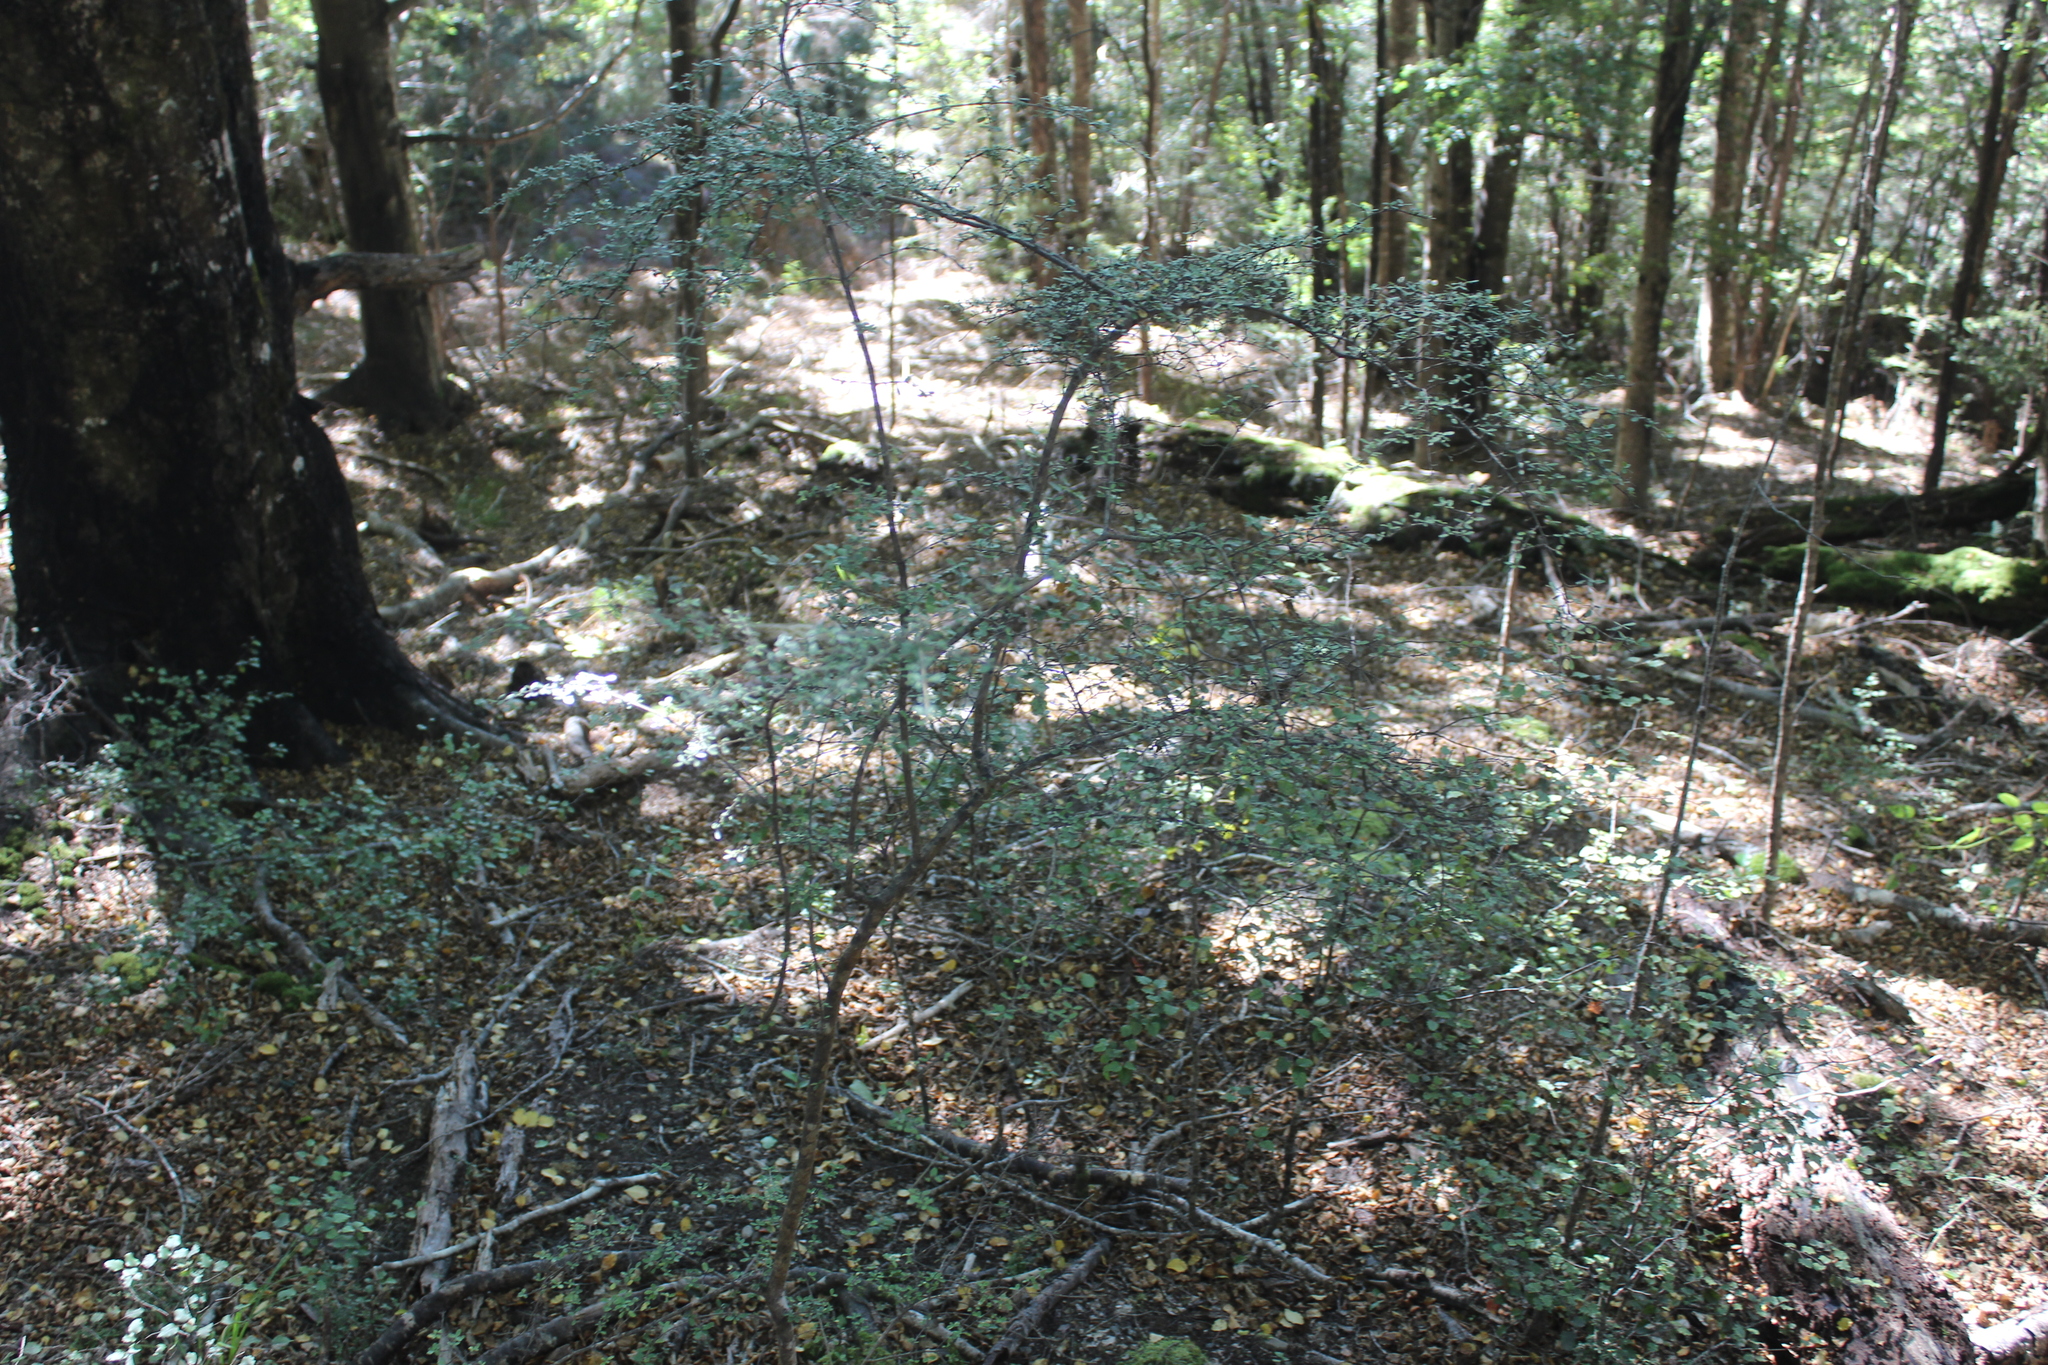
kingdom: Plantae
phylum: Tracheophyta
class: Magnoliopsida
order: Gentianales
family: Rubiaceae
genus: Coprosma
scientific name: Coprosma dumosa
